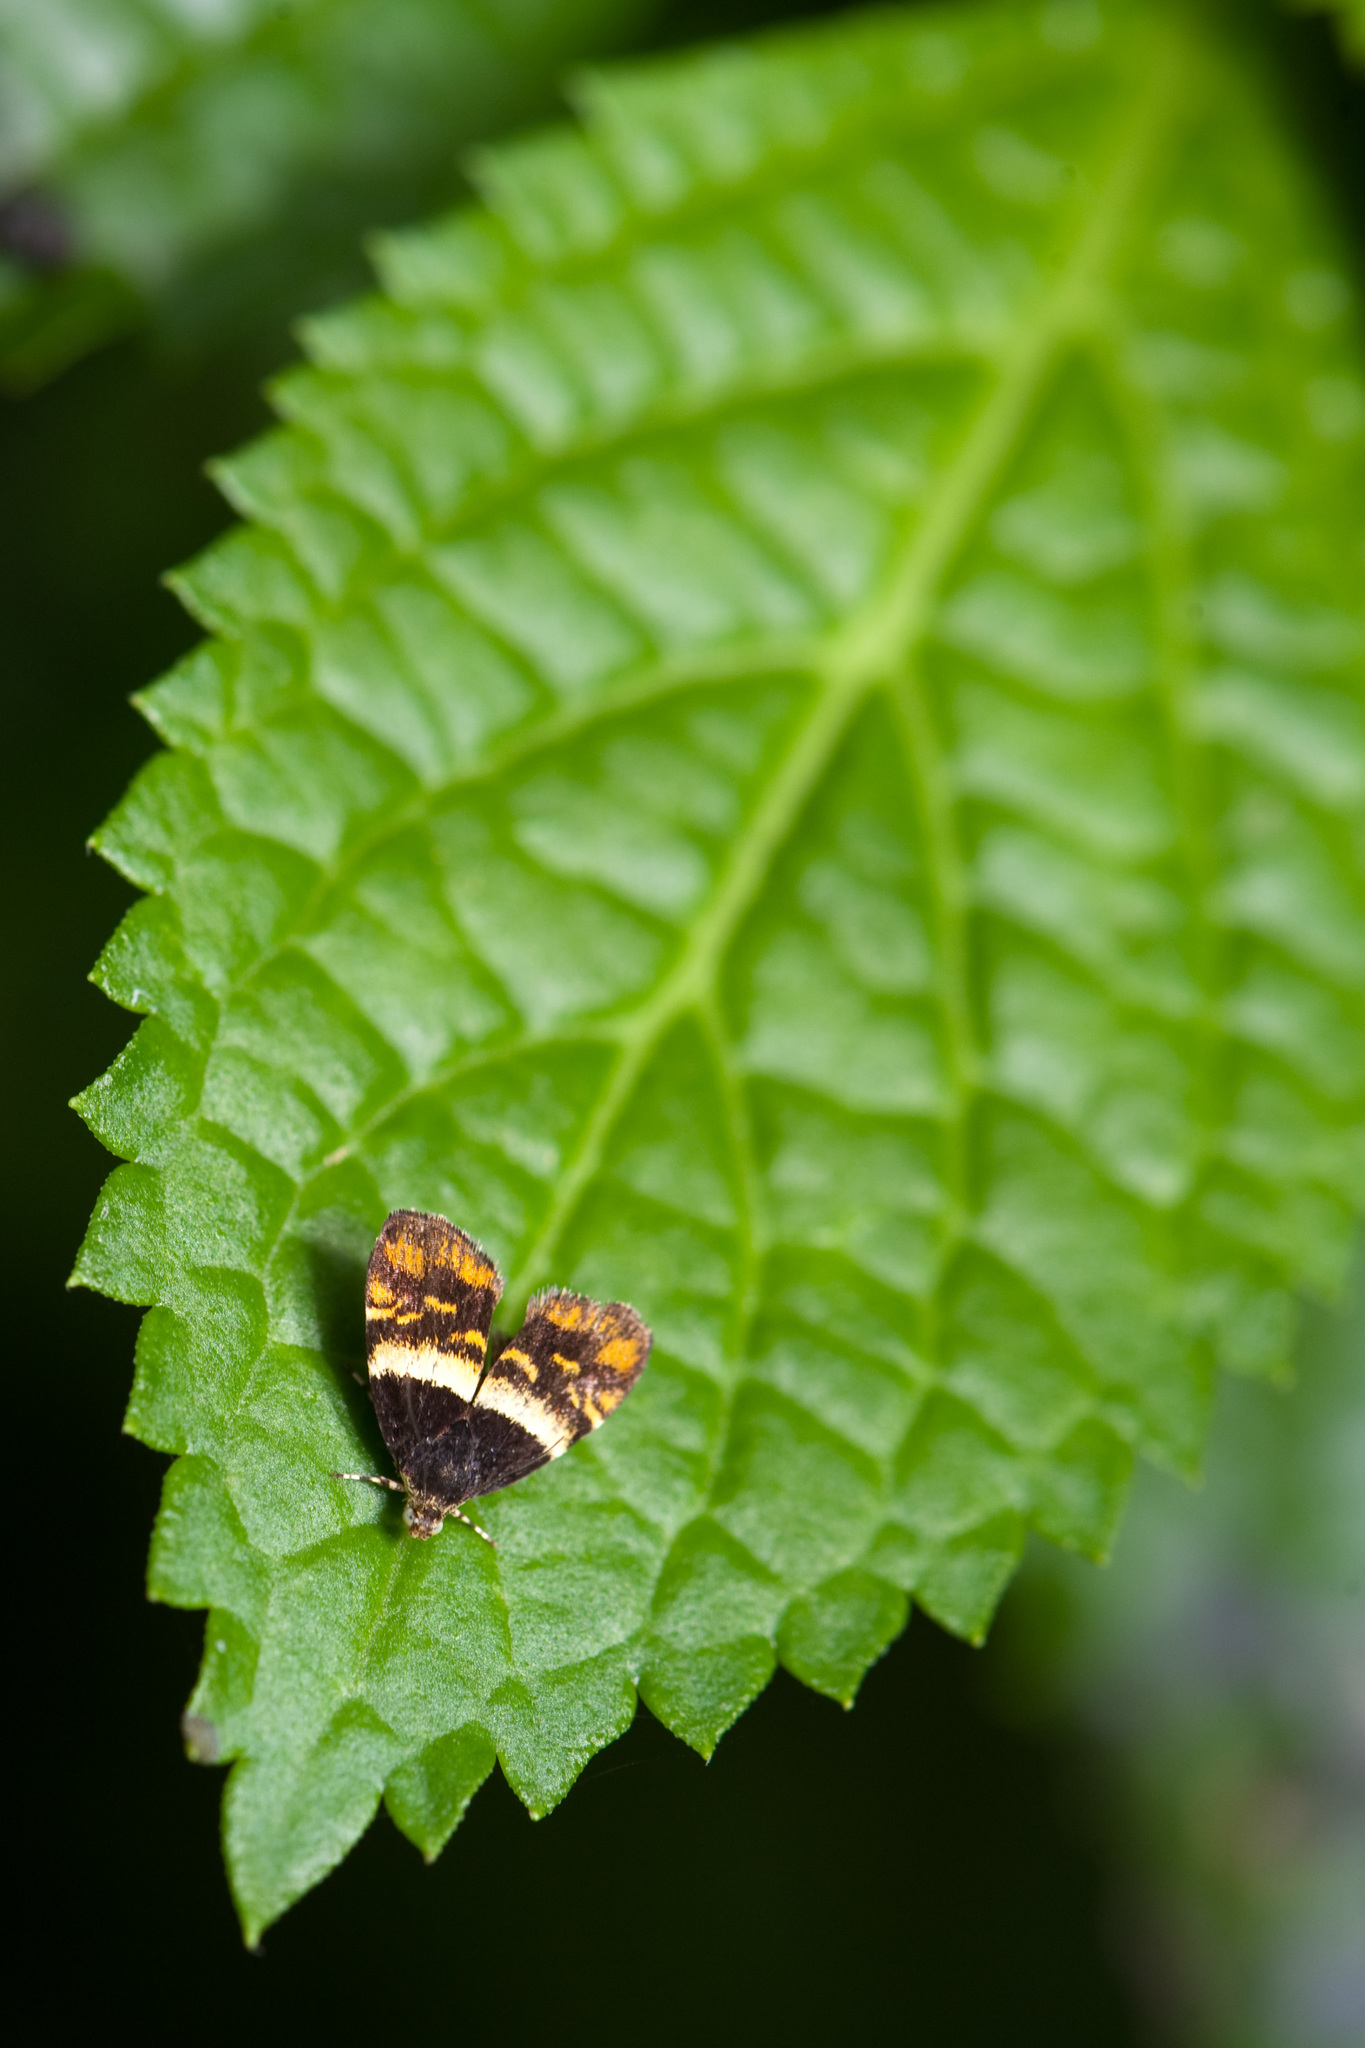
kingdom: Animalia
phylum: Arthropoda
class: Insecta
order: Lepidoptera
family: Choreutidae
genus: Anthophila
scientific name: Anthophila xanthogramma
